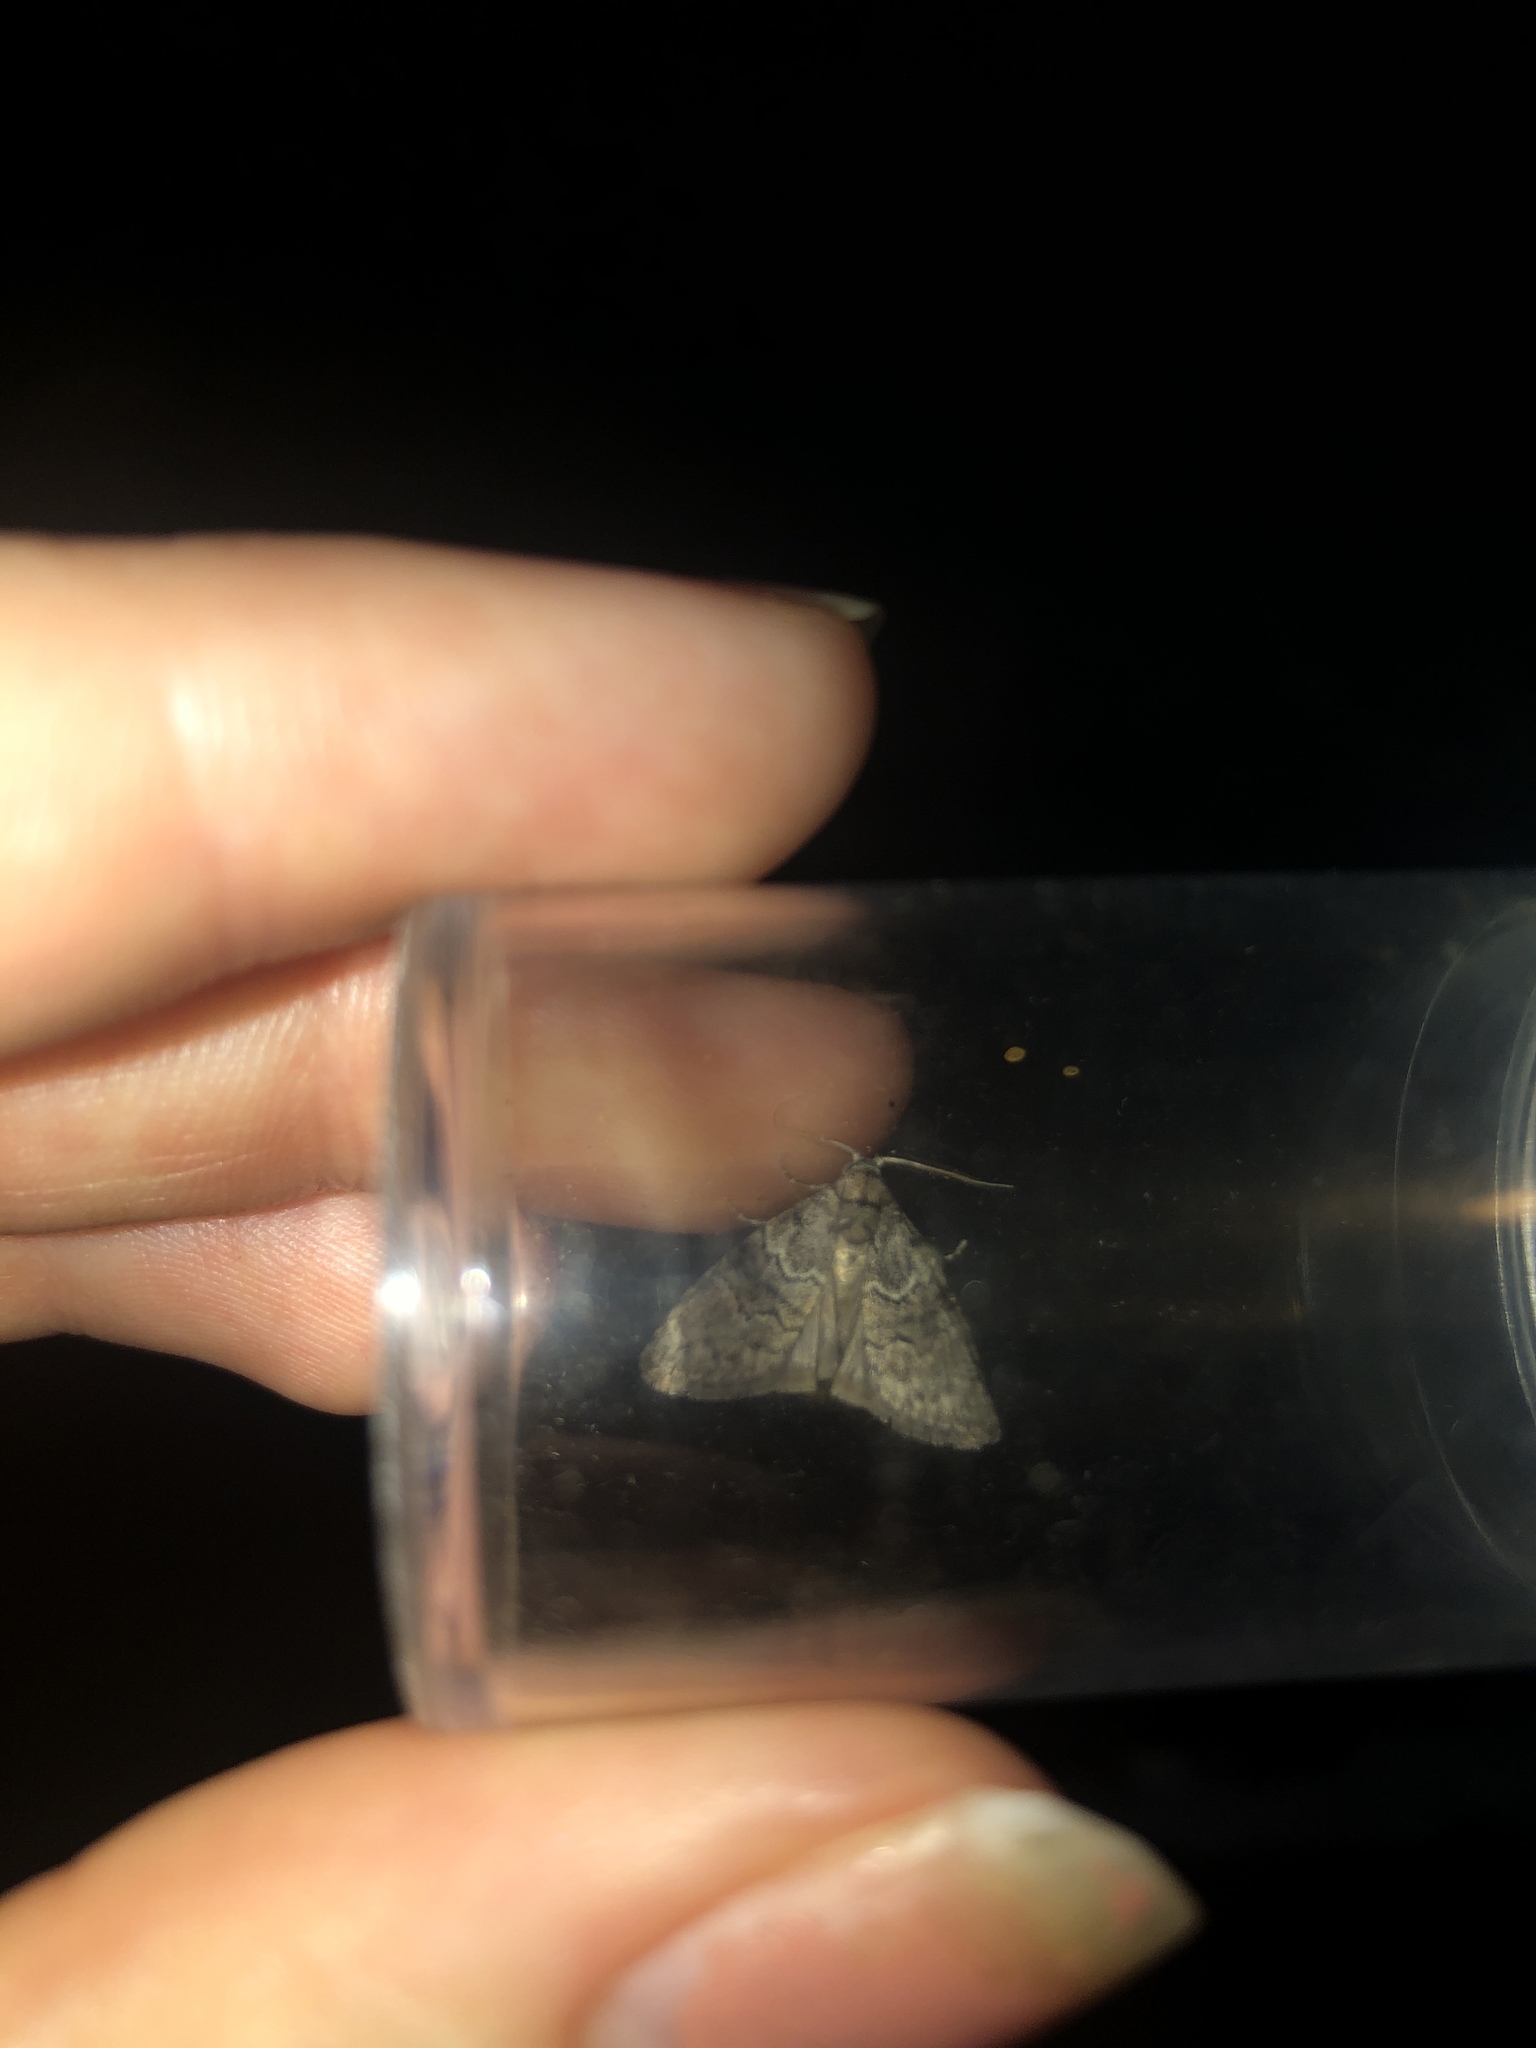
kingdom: Animalia
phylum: Arthropoda
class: Insecta
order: Lepidoptera
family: Nolidae
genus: Uraba
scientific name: Uraba lugens
